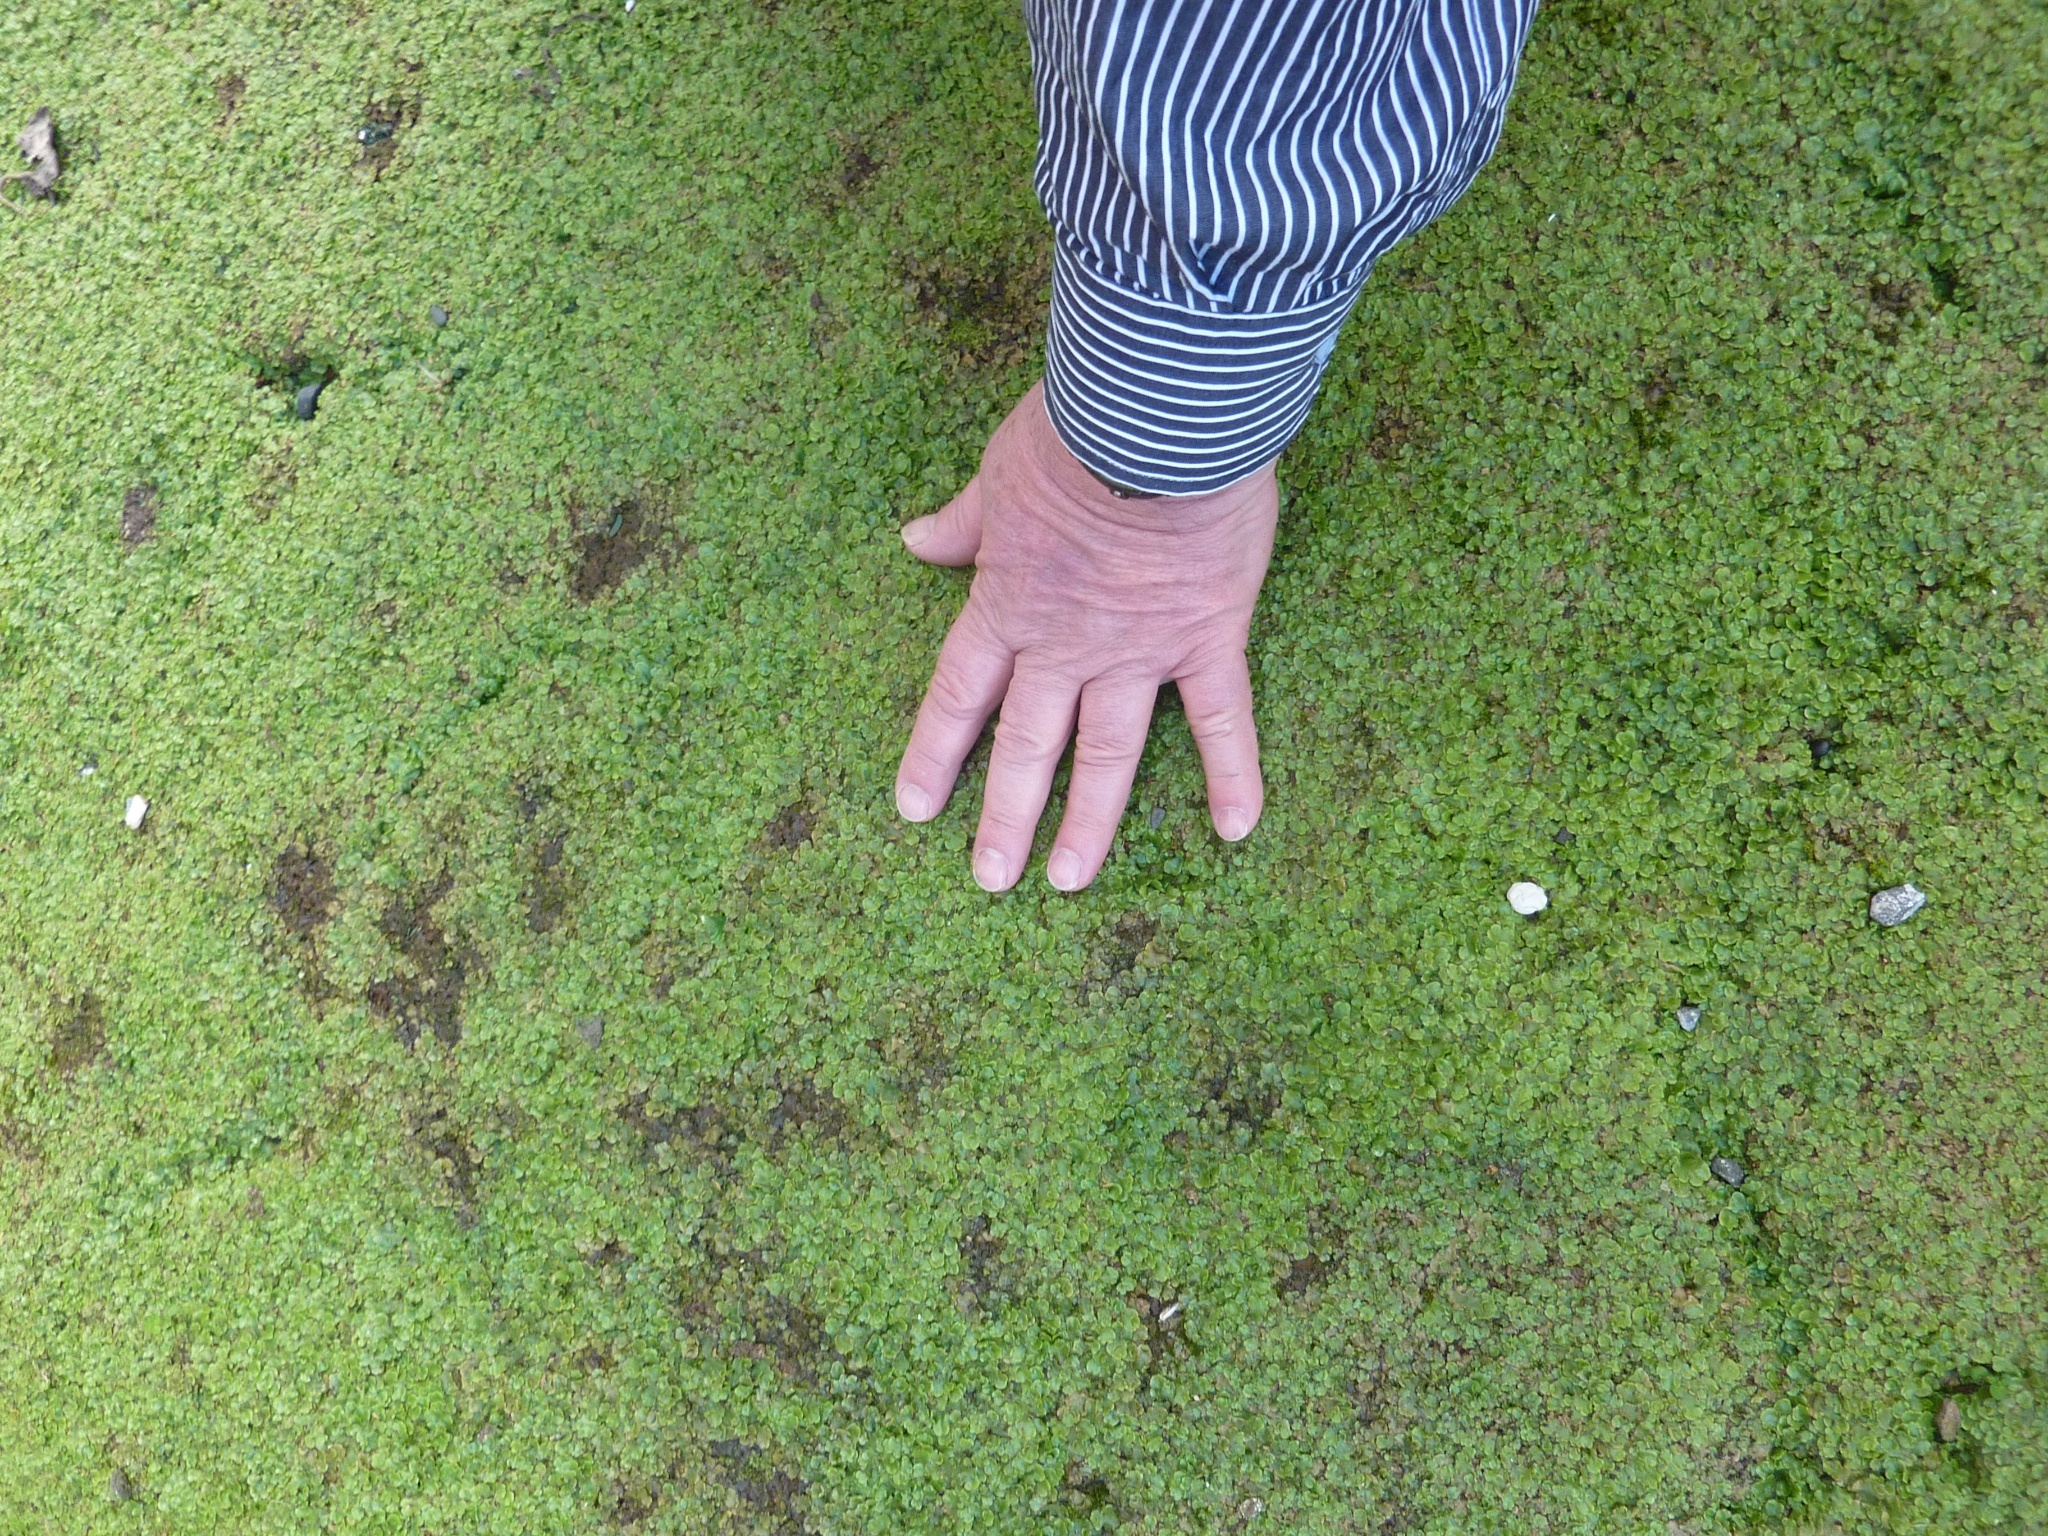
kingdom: Plantae
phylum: Marchantiophyta
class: Marchantiopsida
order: Lunulariales
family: Lunulariaceae
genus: Lunularia
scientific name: Lunularia cruciata
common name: Crescent-cup liverwort
